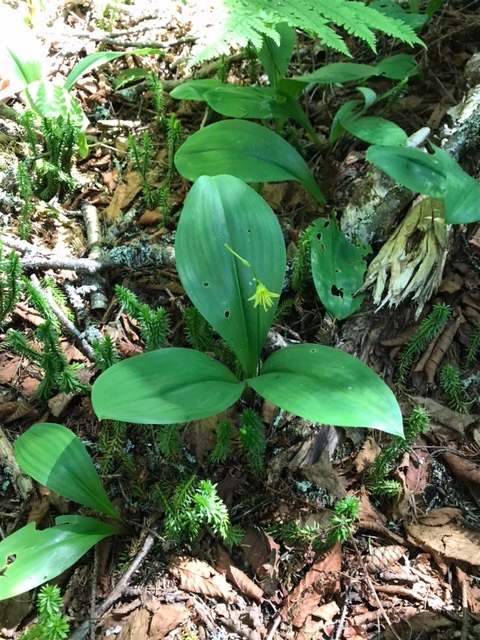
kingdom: Plantae
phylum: Tracheophyta
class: Liliopsida
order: Liliales
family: Liliaceae
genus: Clintonia
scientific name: Clintonia borealis
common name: Yellow clintonia
